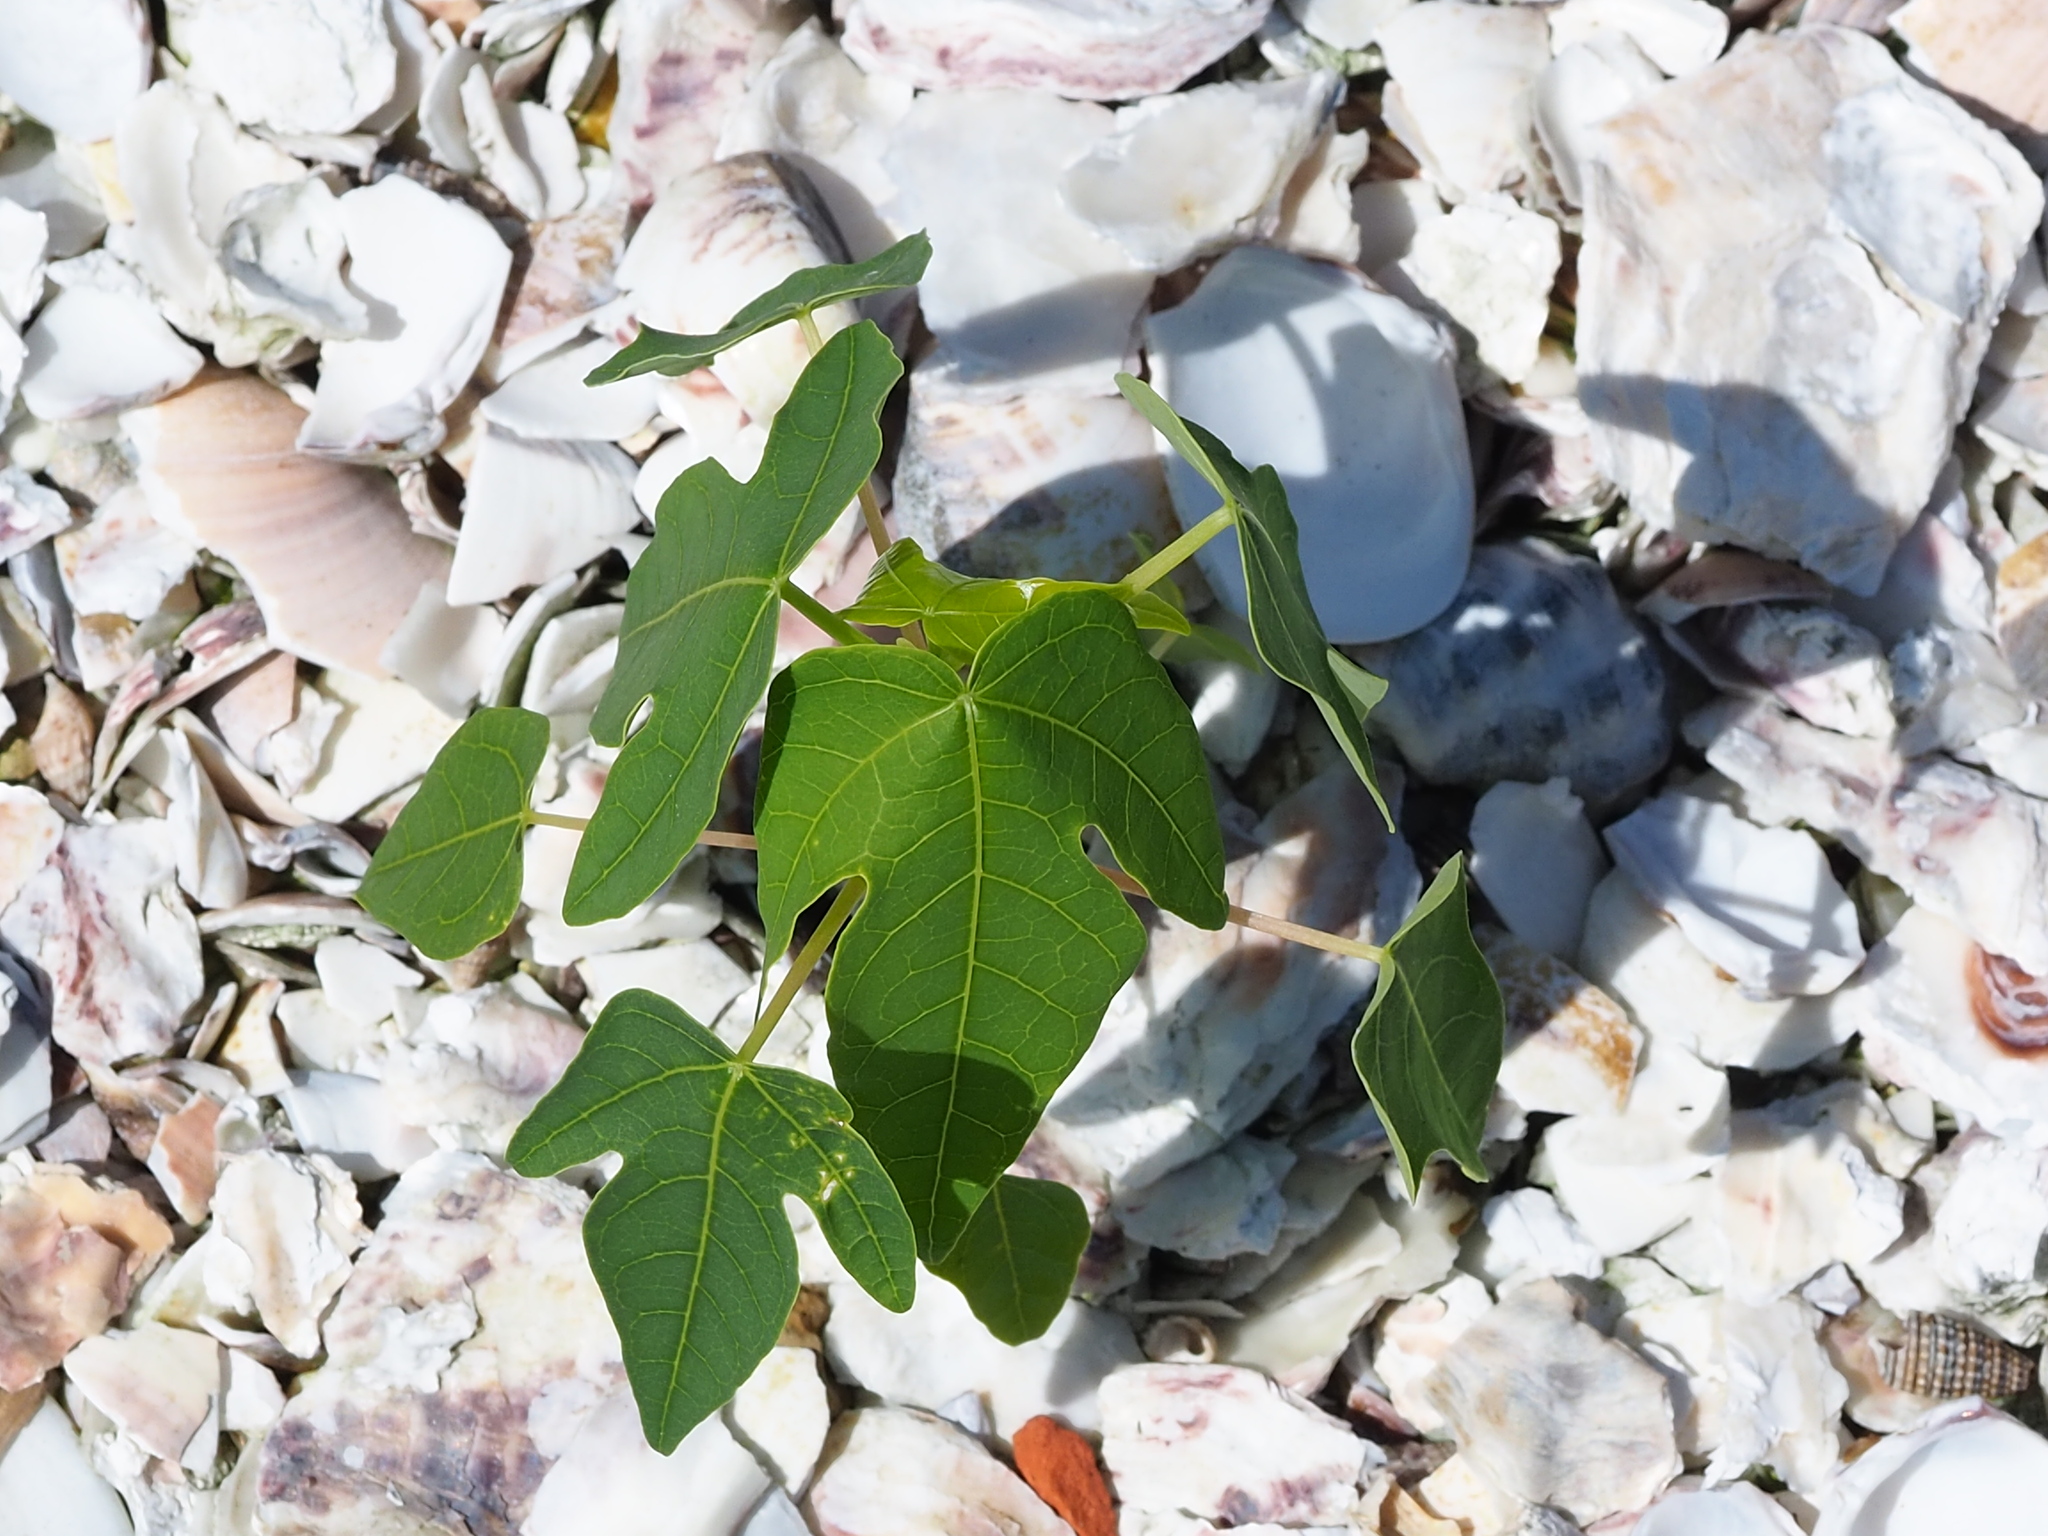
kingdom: Plantae
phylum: Tracheophyta
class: Magnoliopsida
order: Brassicales
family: Caricaceae
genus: Carica
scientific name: Carica papaya
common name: Papaya
